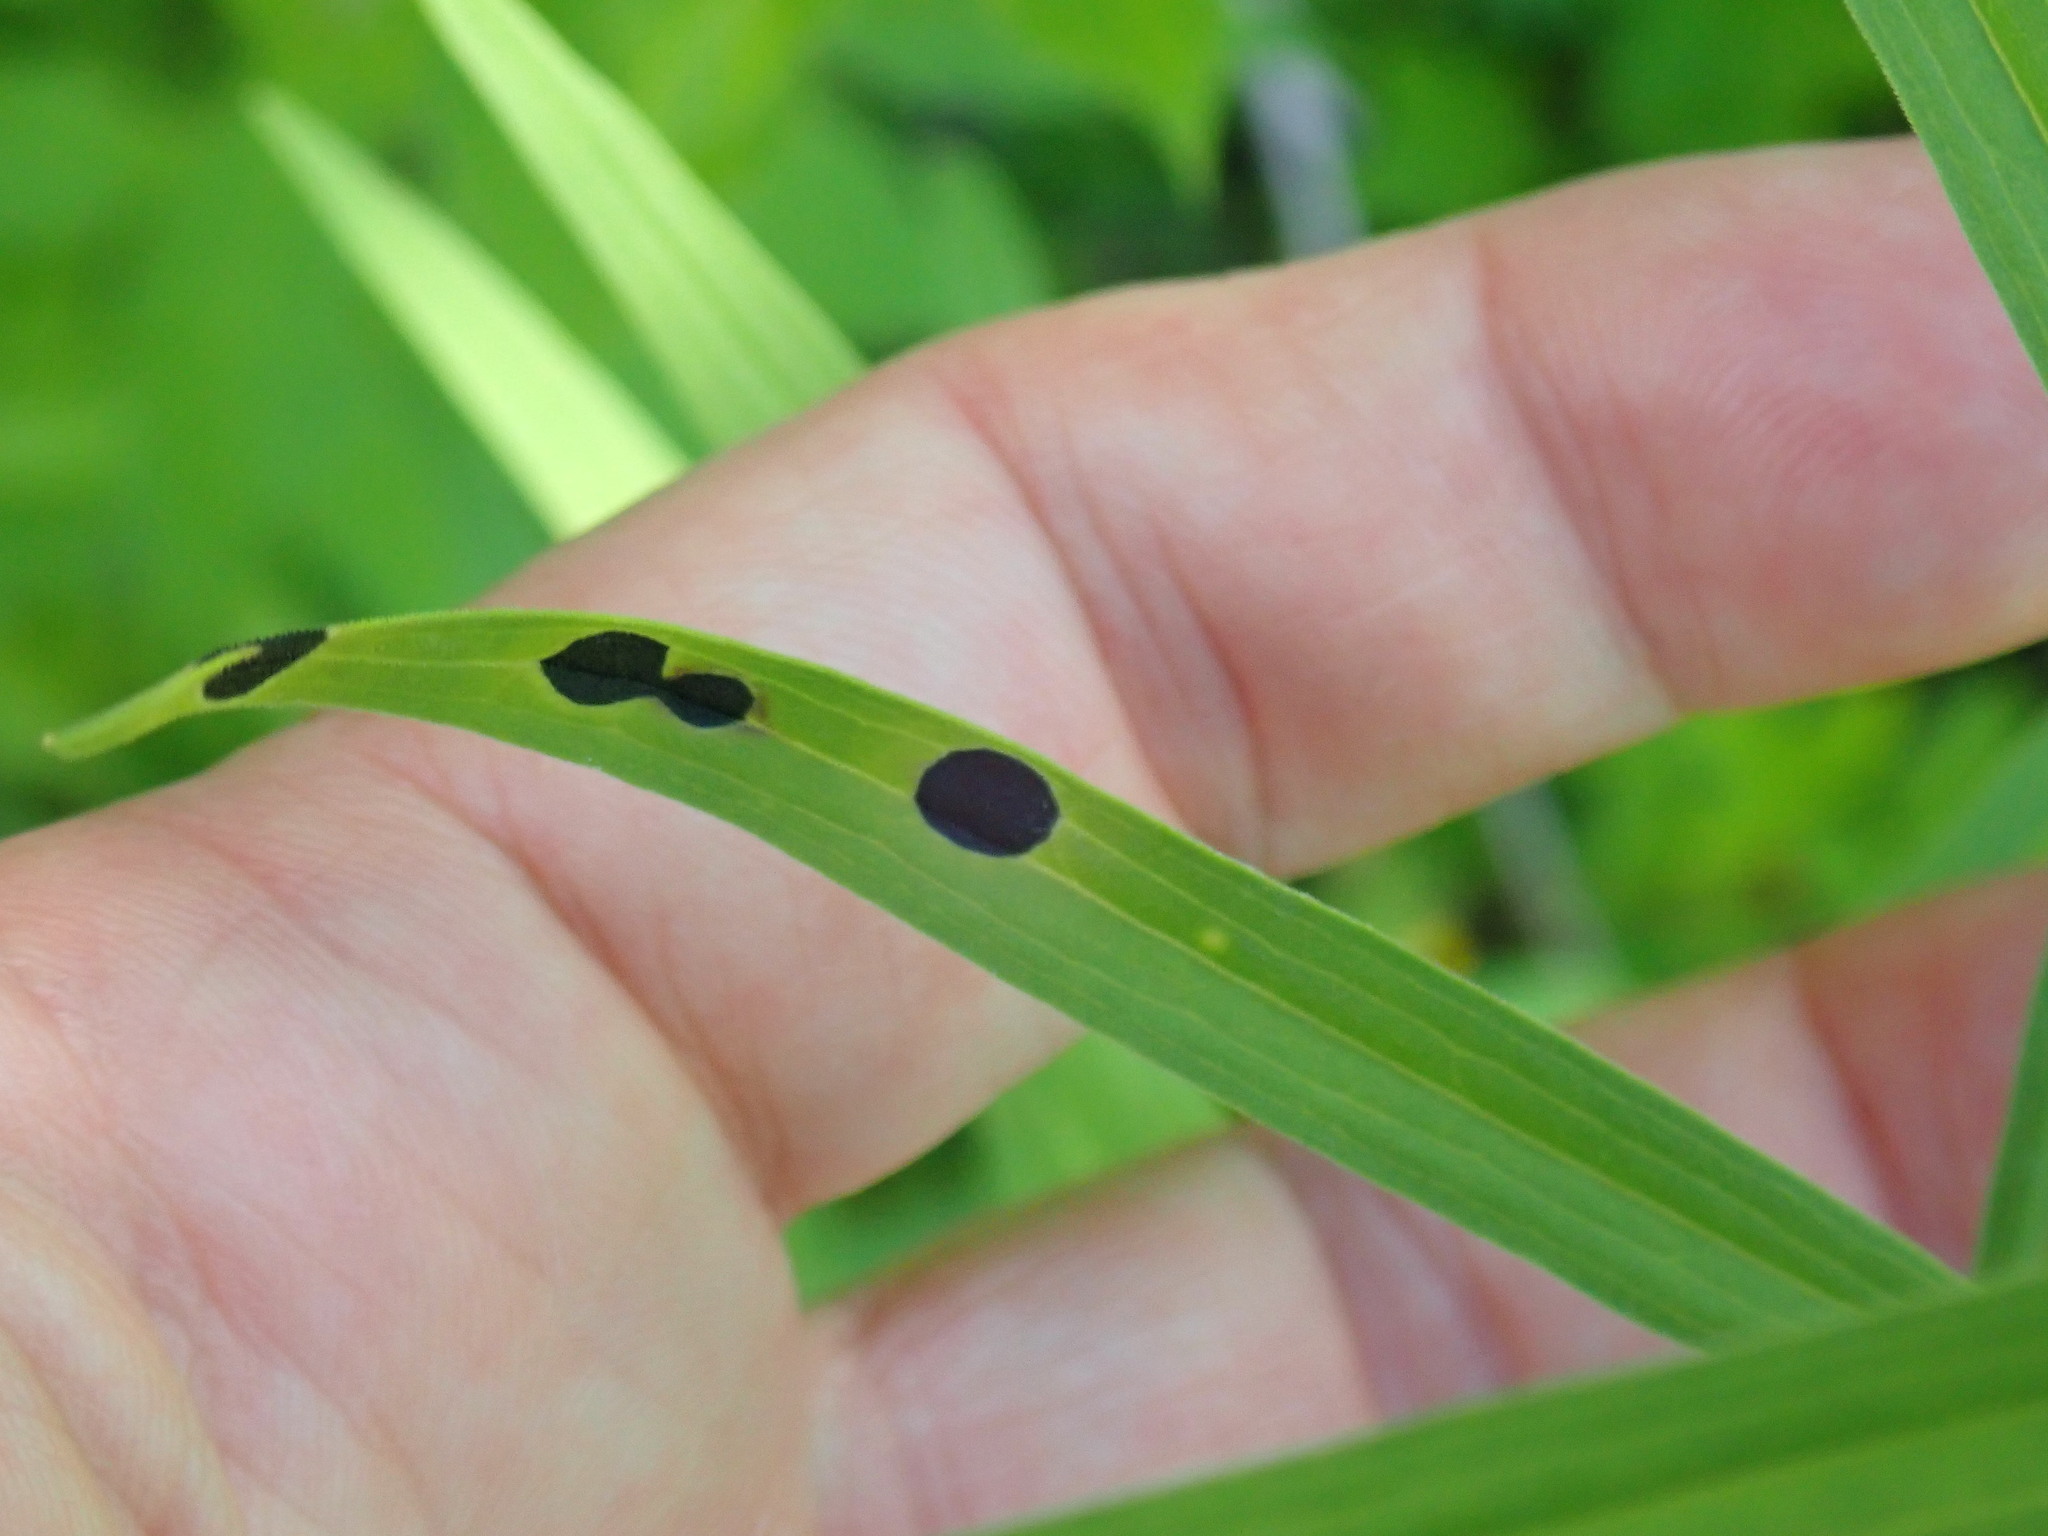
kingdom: Animalia
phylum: Arthropoda
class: Insecta
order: Diptera
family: Cecidomyiidae
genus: Asteromyia
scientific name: Asteromyia euthamiae
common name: Euthamia leaf gall midge
